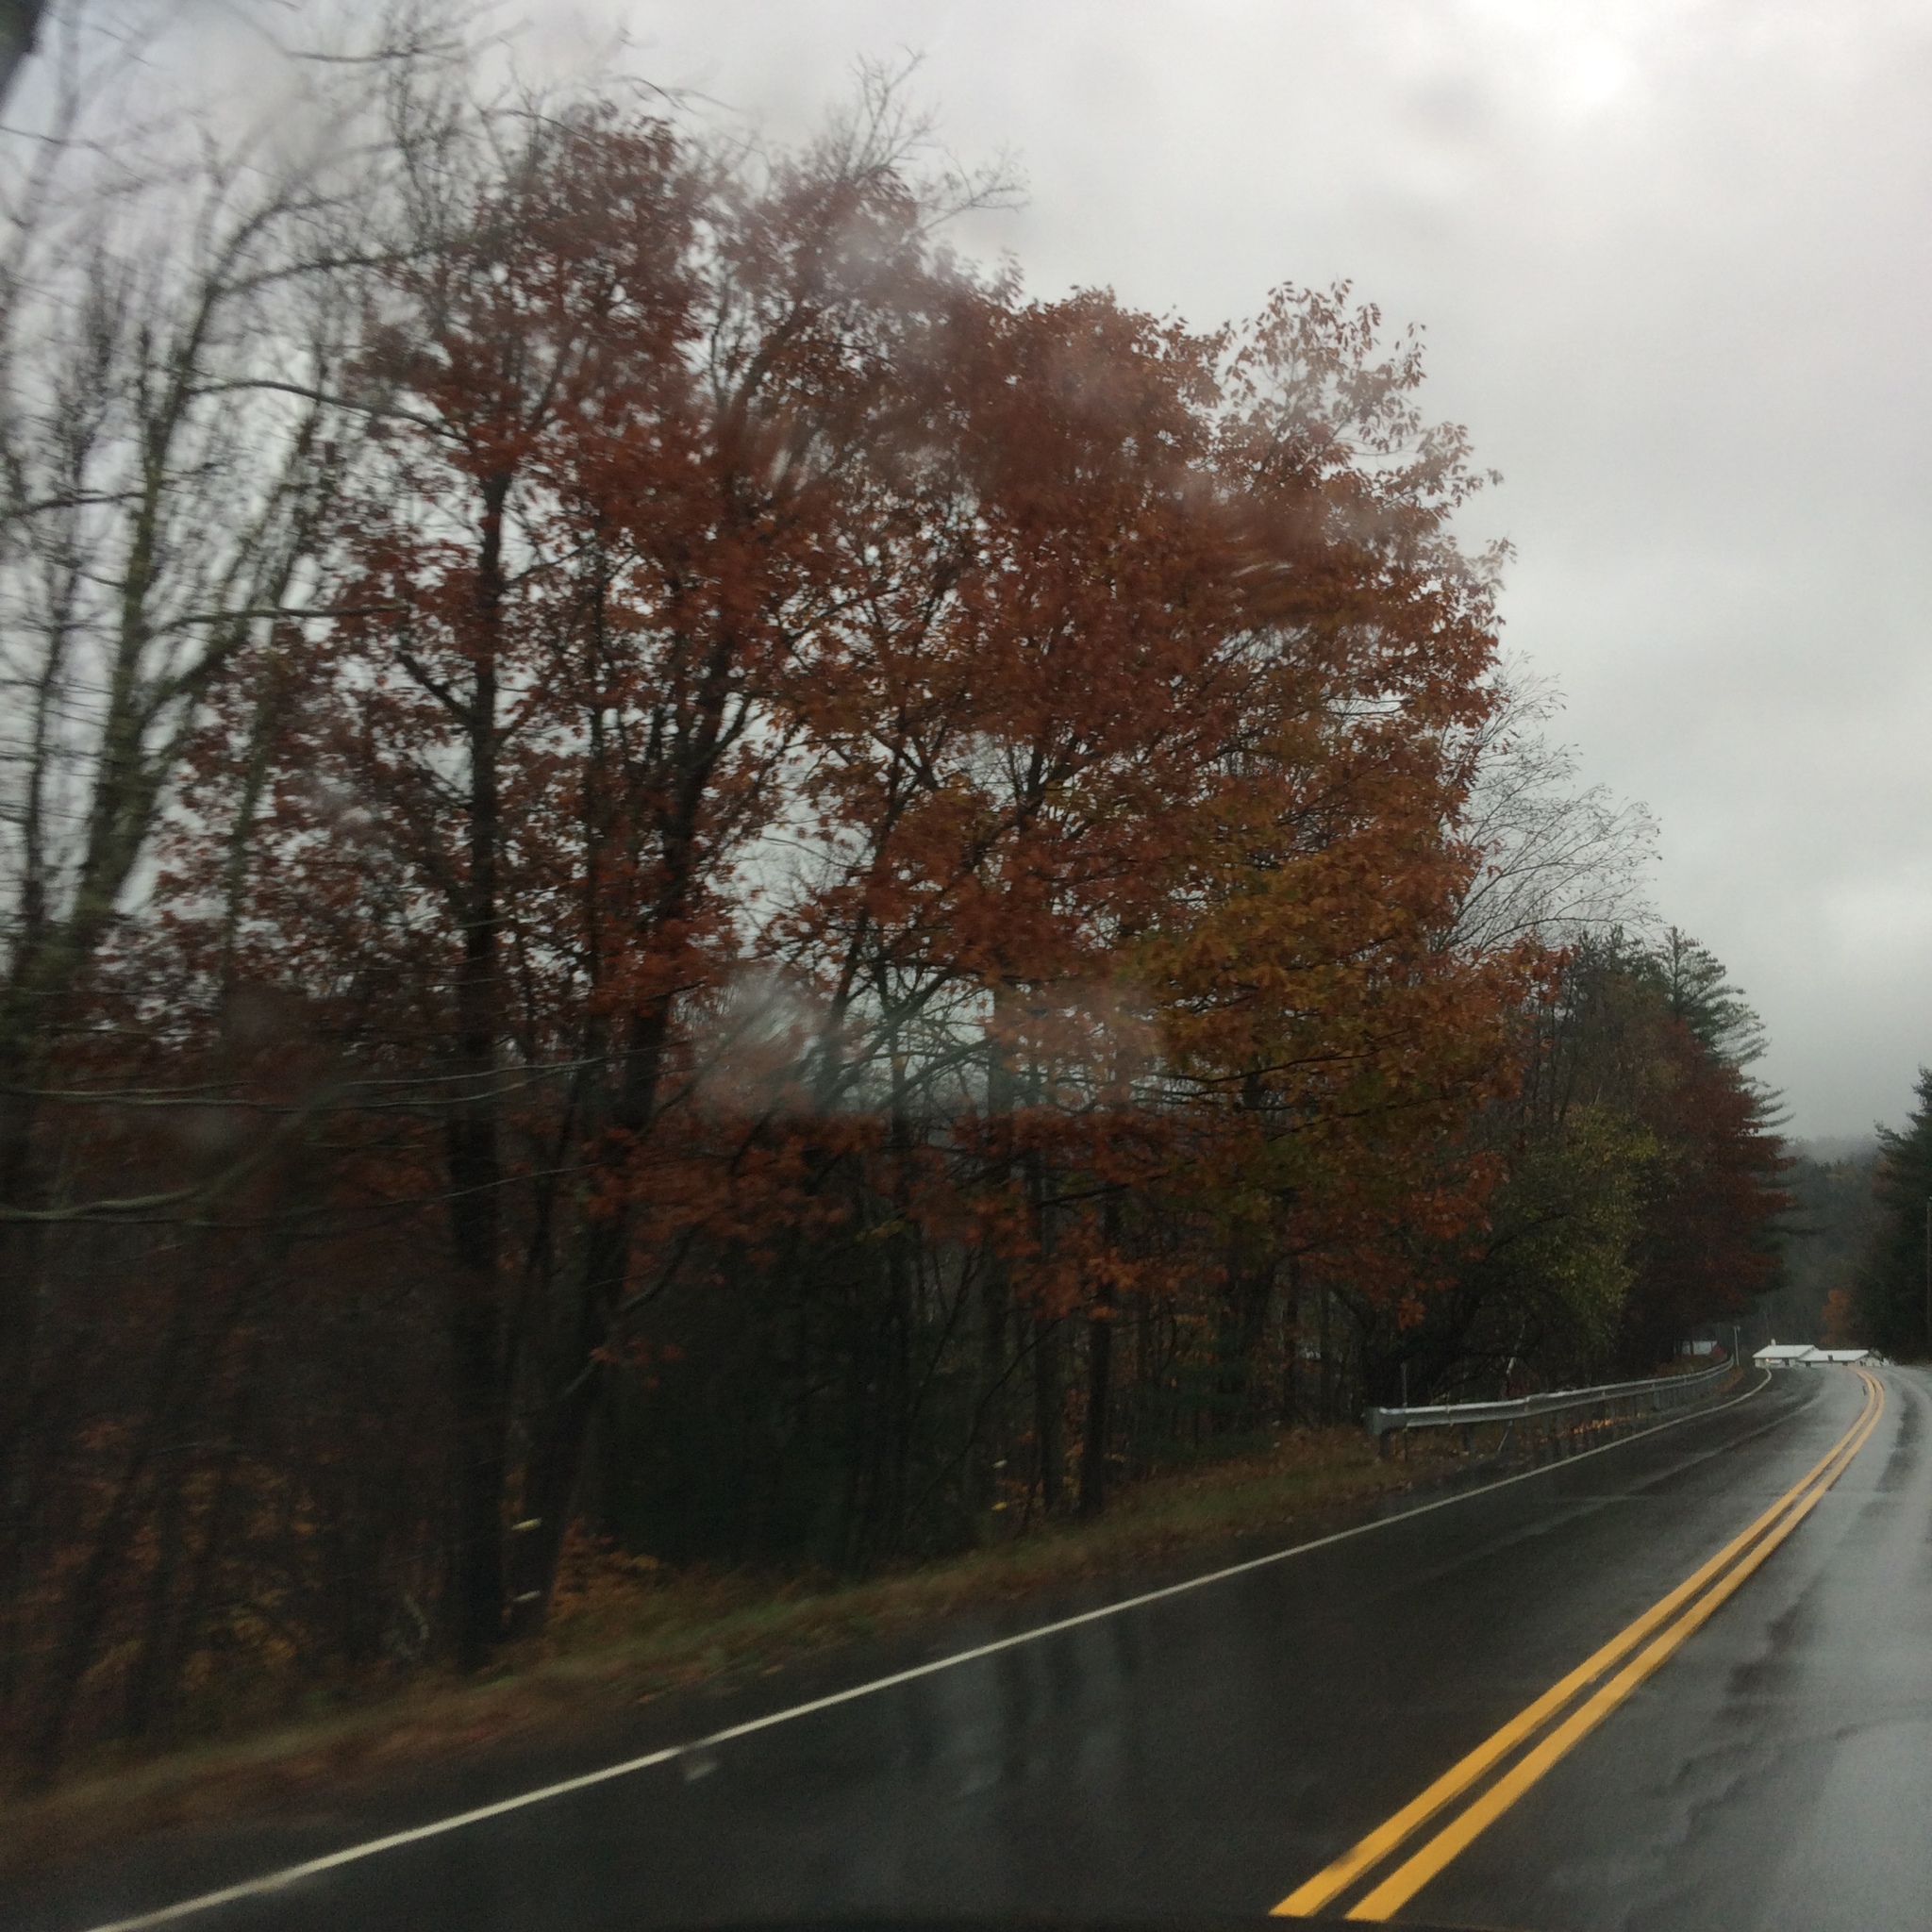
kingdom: Plantae
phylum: Tracheophyta
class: Magnoliopsida
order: Fagales
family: Fagaceae
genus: Quercus
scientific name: Quercus rubra
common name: Red oak
